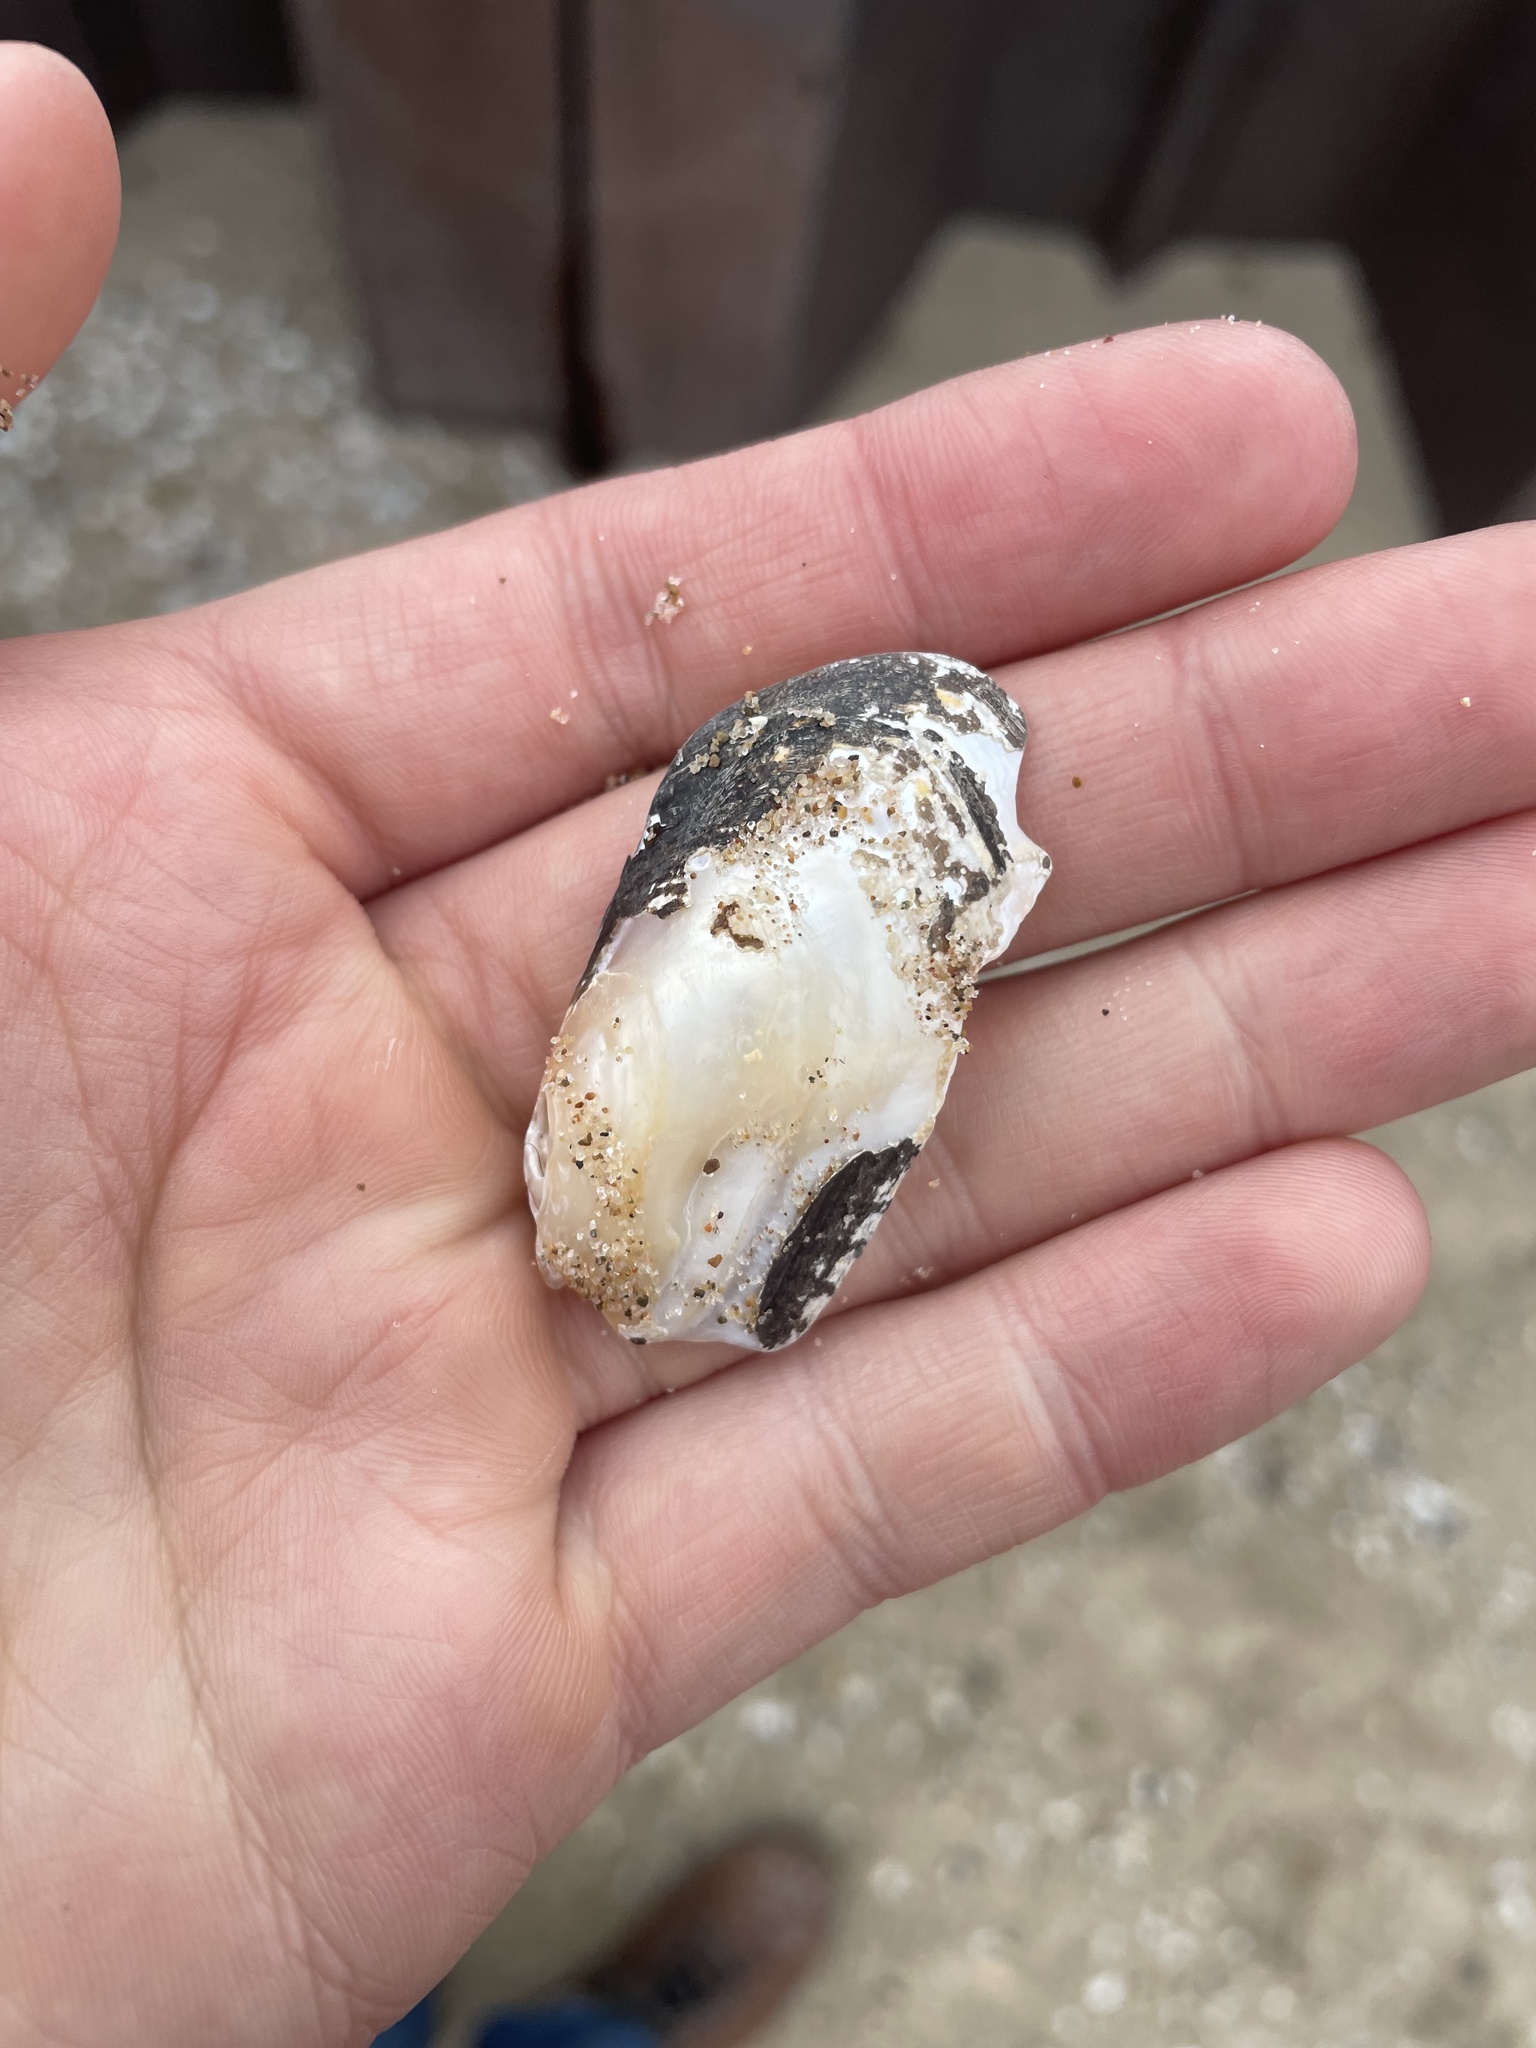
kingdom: Animalia
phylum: Mollusca
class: Bivalvia
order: Unionida
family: Unionidae
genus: Lampsilis
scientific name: Lampsilis siliquoidea
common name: Fatmucket
